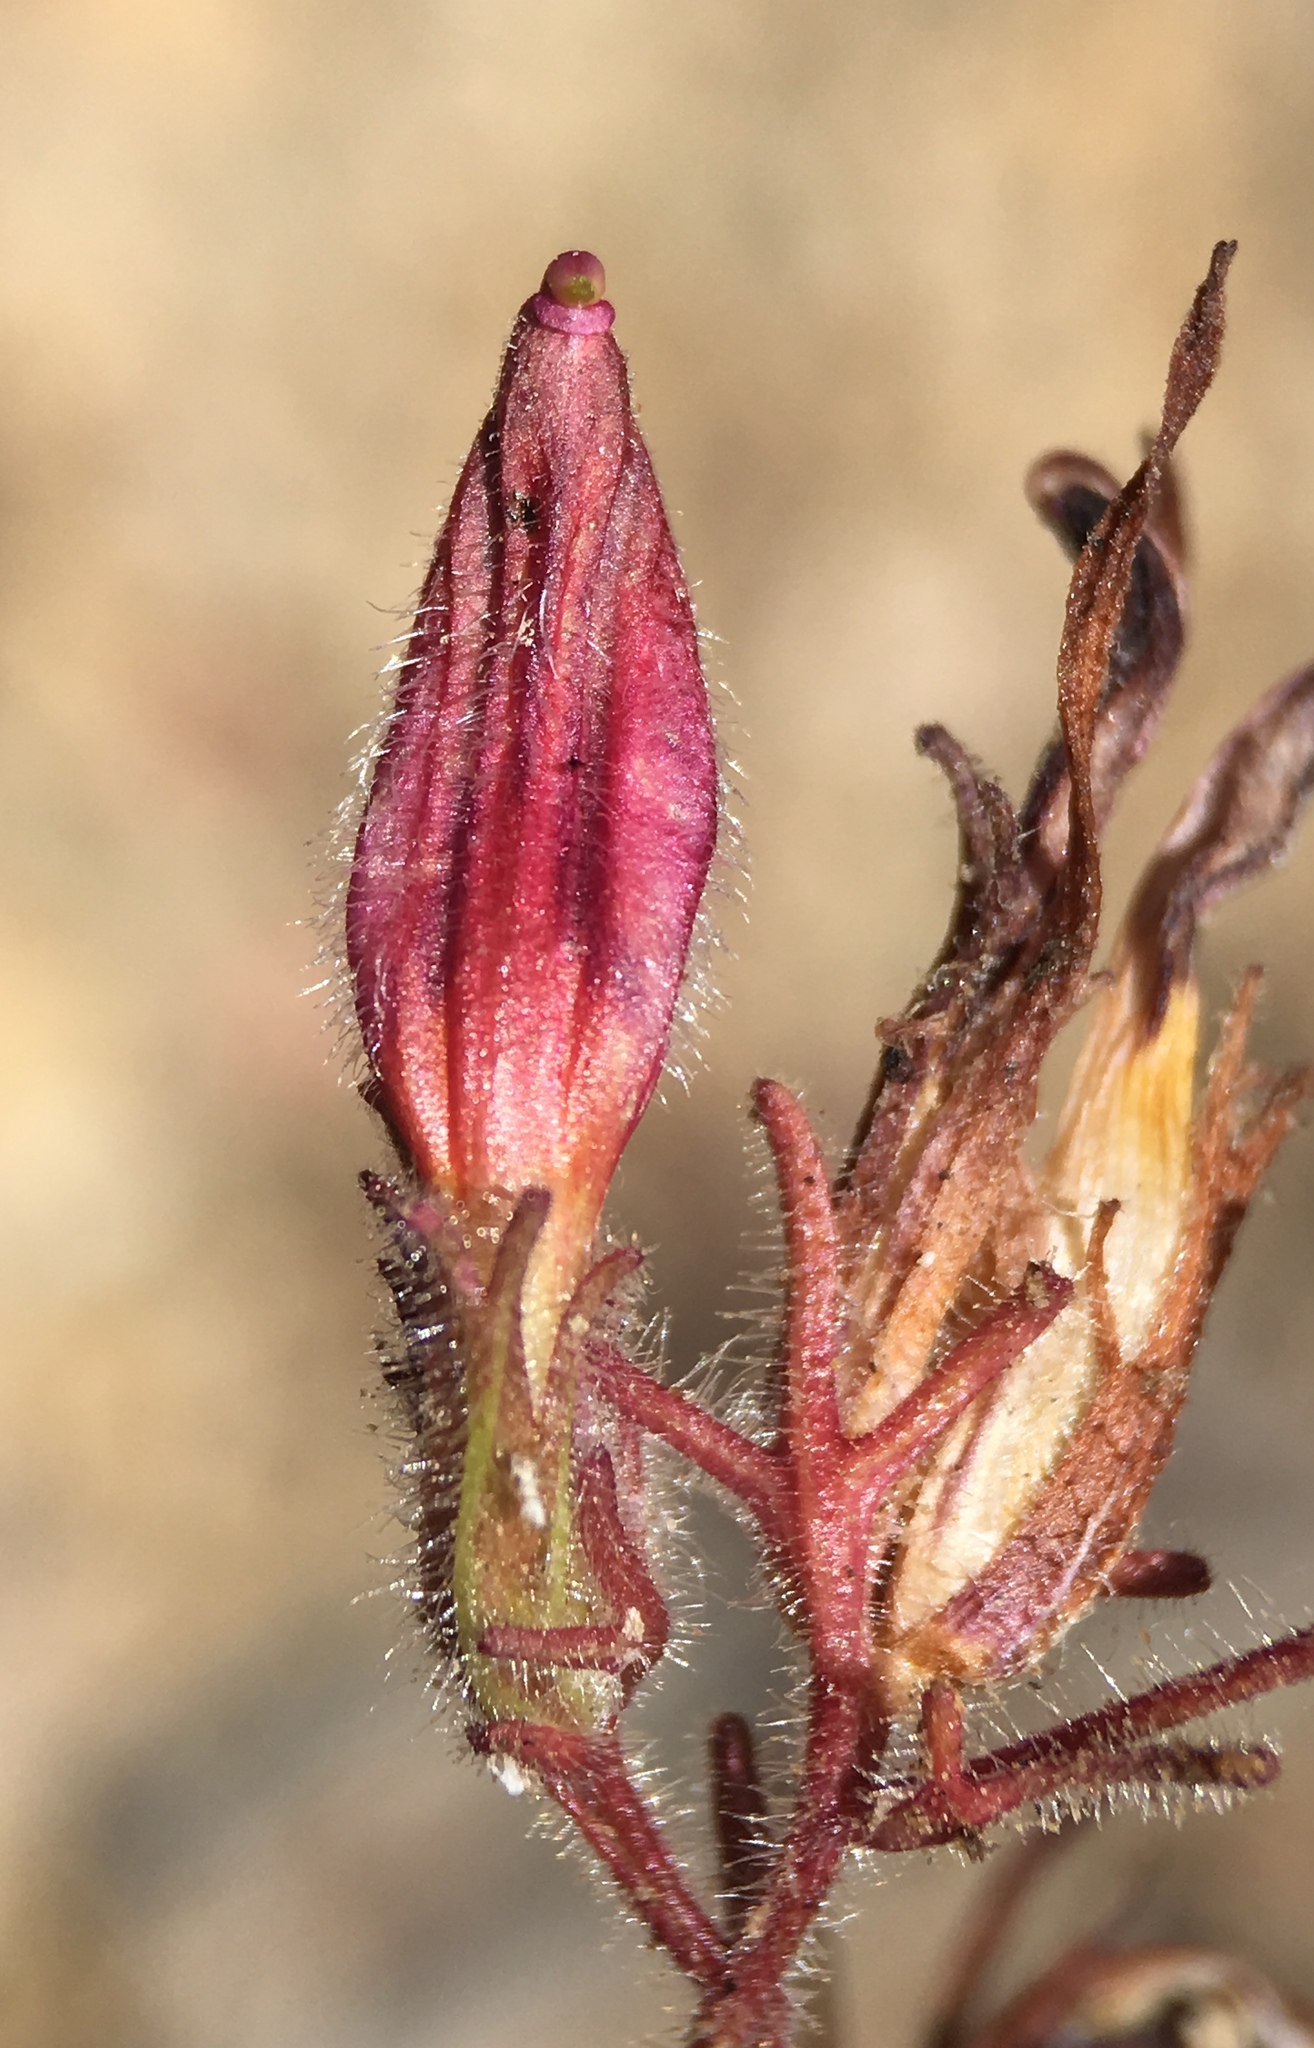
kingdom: Plantae
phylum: Tracheophyta
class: Magnoliopsida
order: Lamiales
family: Orobanchaceae
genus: Cordylanthus
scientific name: Cordylanthus kingii
